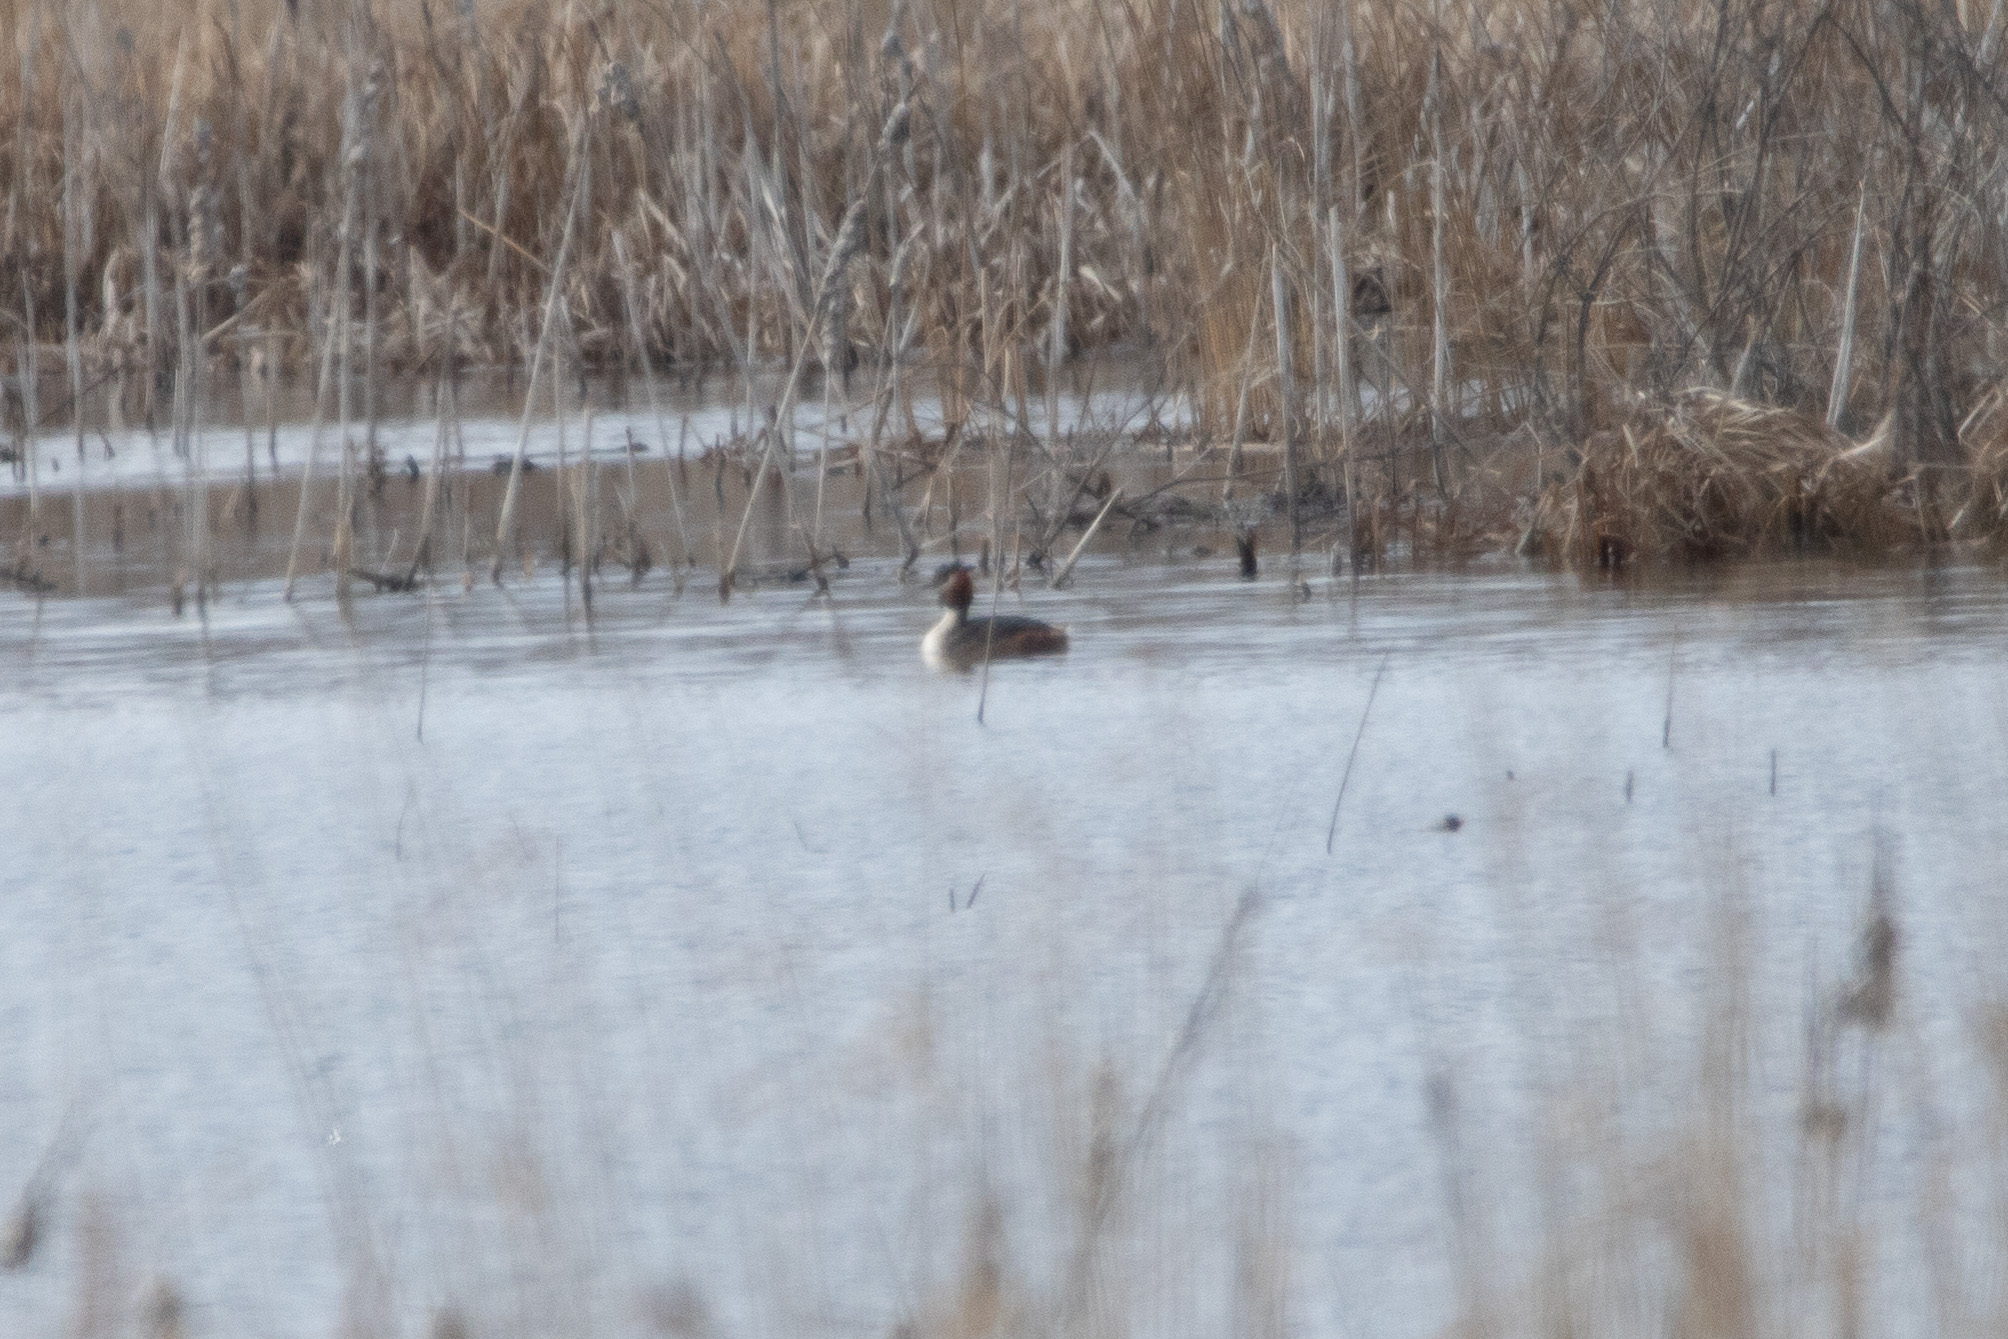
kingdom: Animalia
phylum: Chordata
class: Aves
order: Podicipediformes
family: Podicipedidae
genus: Podiceps
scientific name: Podiceps cristatus
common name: Great crested grebe
